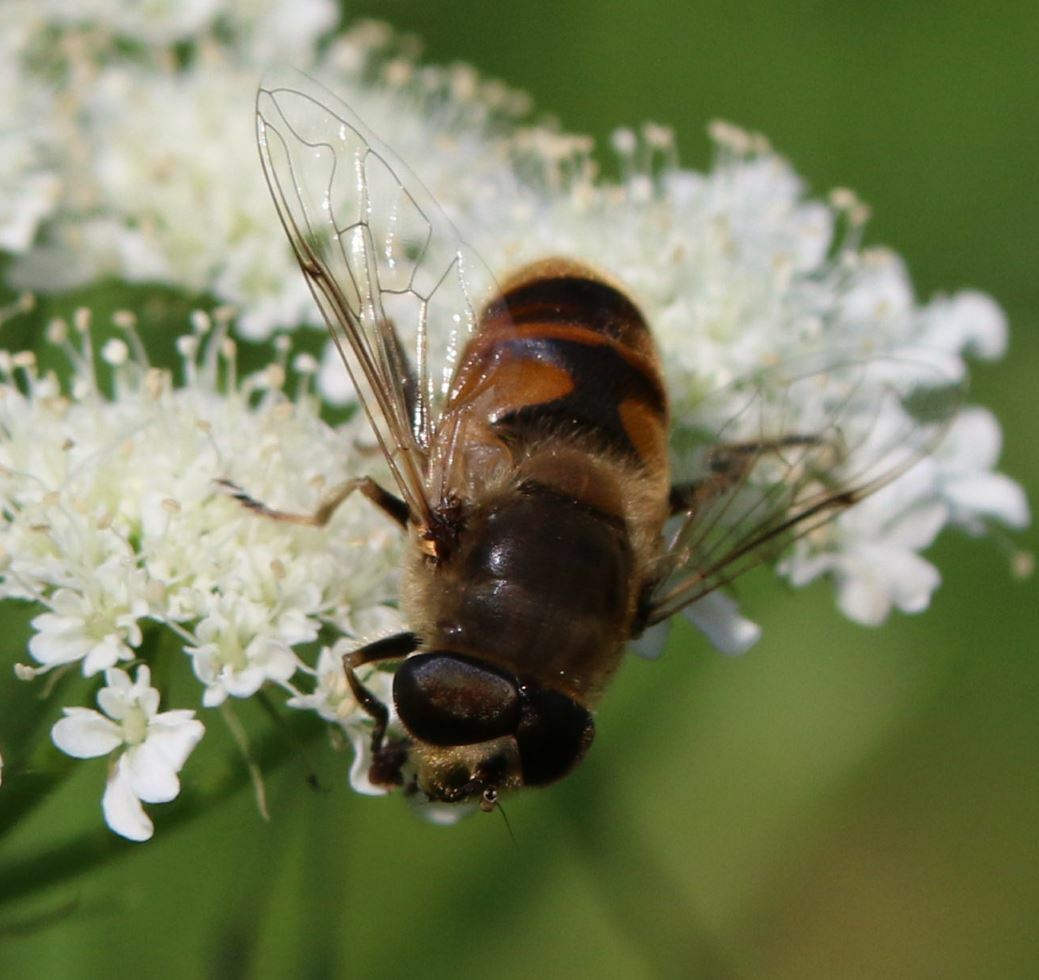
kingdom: Animalia
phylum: Arthropoda
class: Insecta
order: Diptera
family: Syrphidae
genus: Eristalis
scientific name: Eristalis tenax
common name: Drone fly
